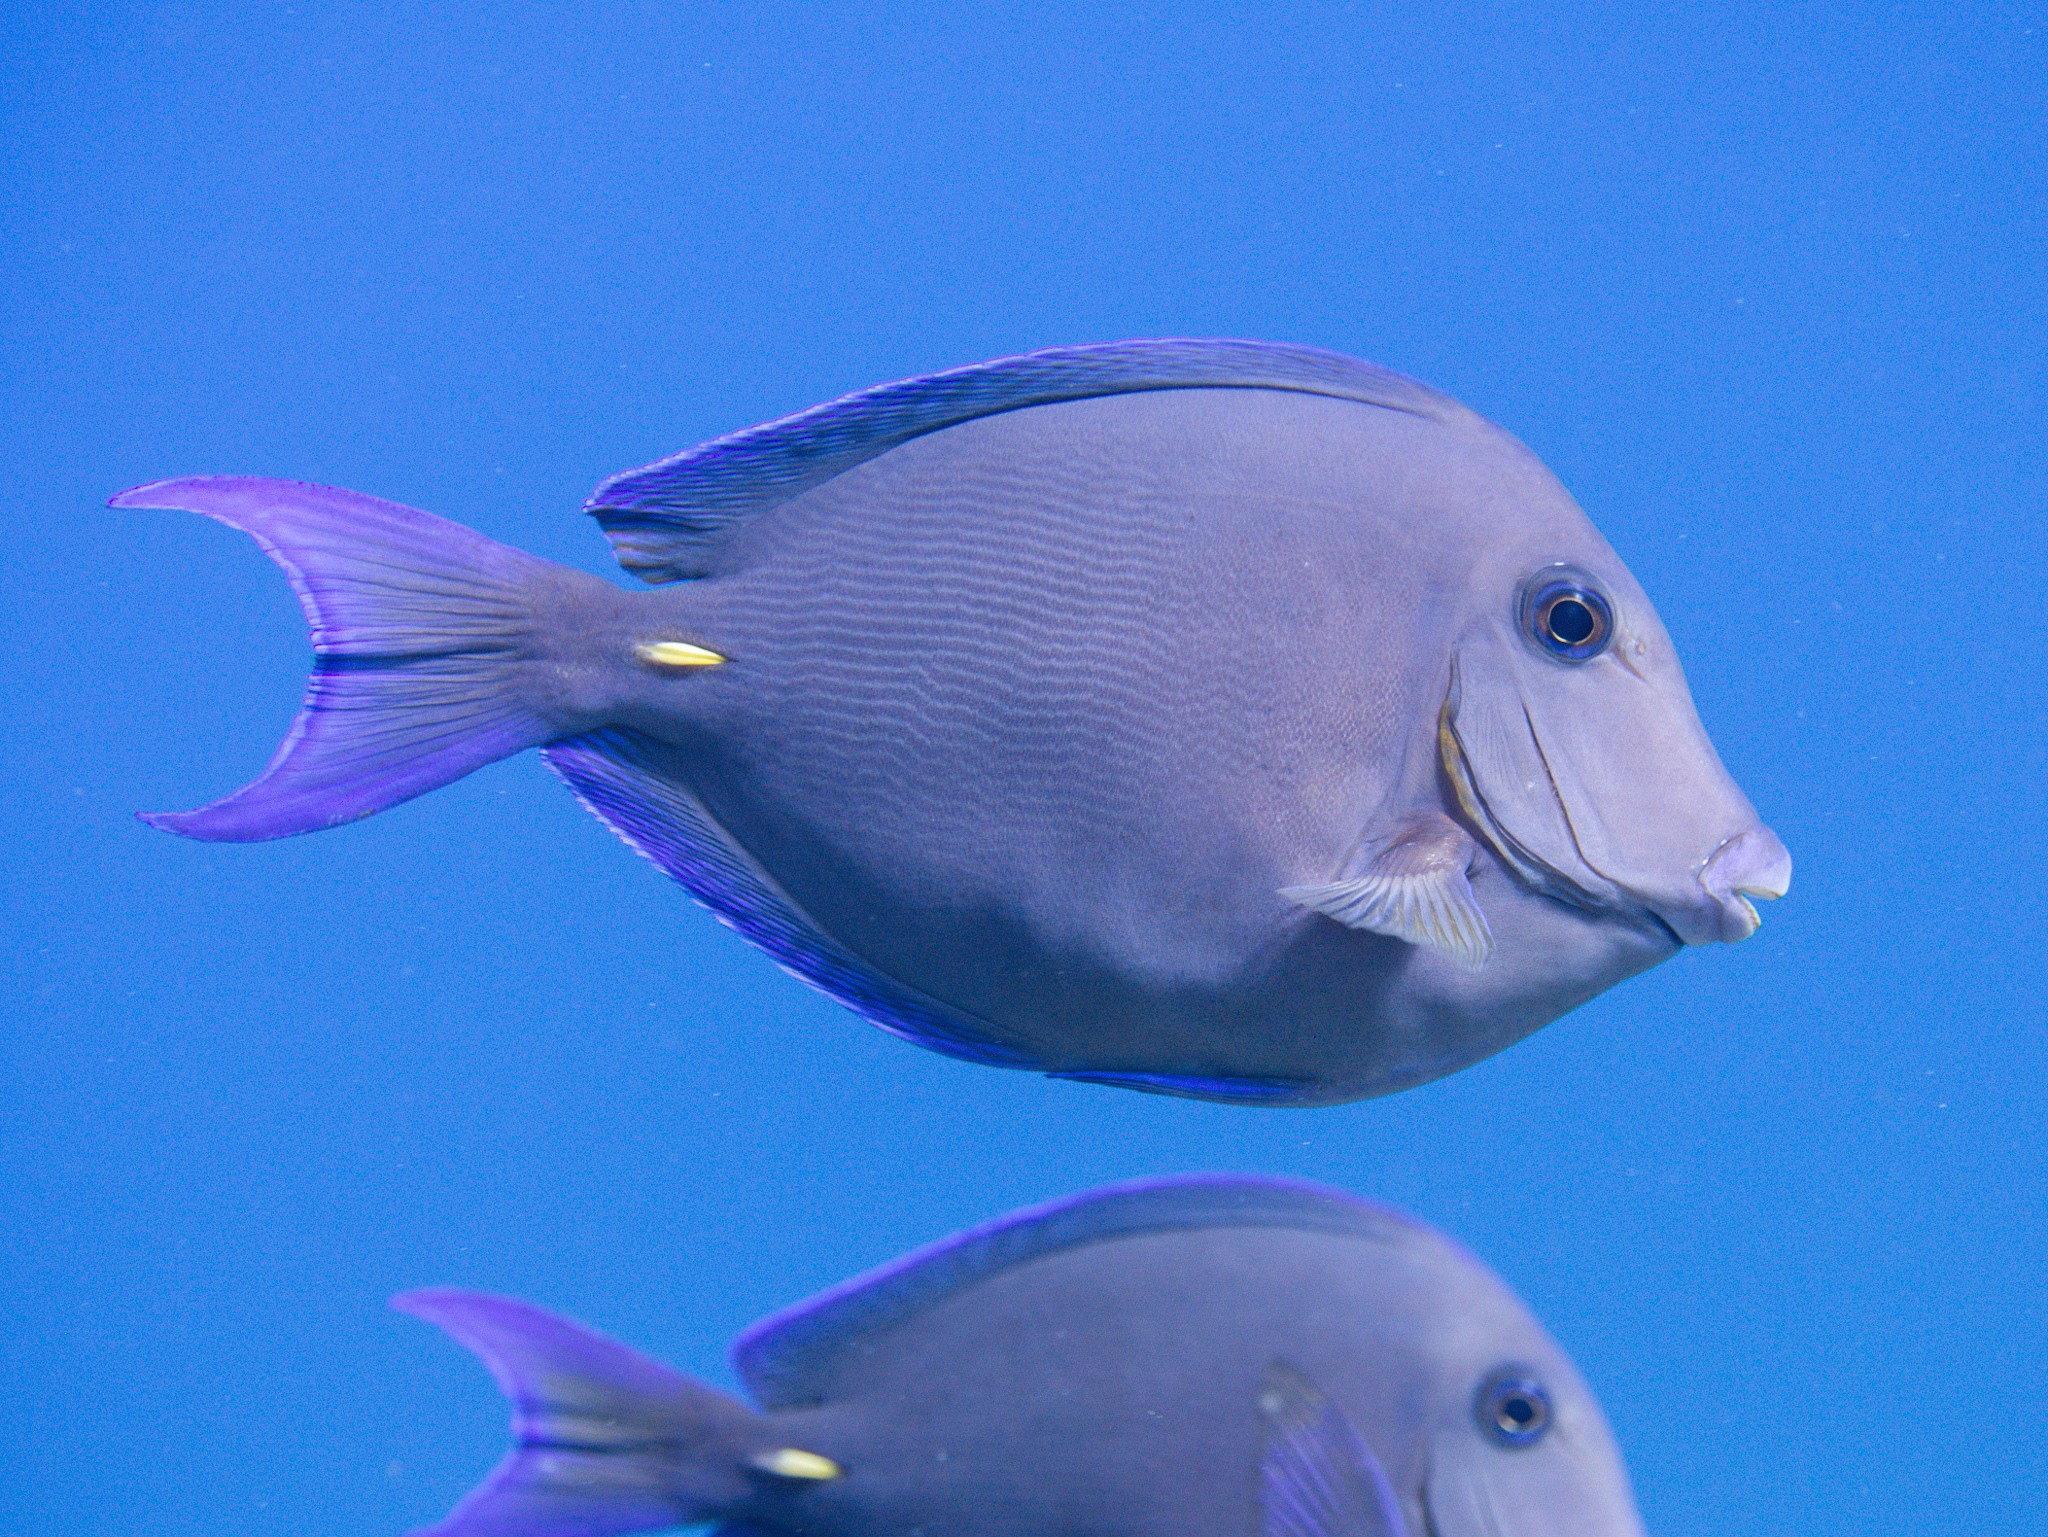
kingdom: Animalia
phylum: Chordata
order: Perciformes
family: Acanthuridae
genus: Acanthurus
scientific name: Acanthurus coeruleus
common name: Blue tang
